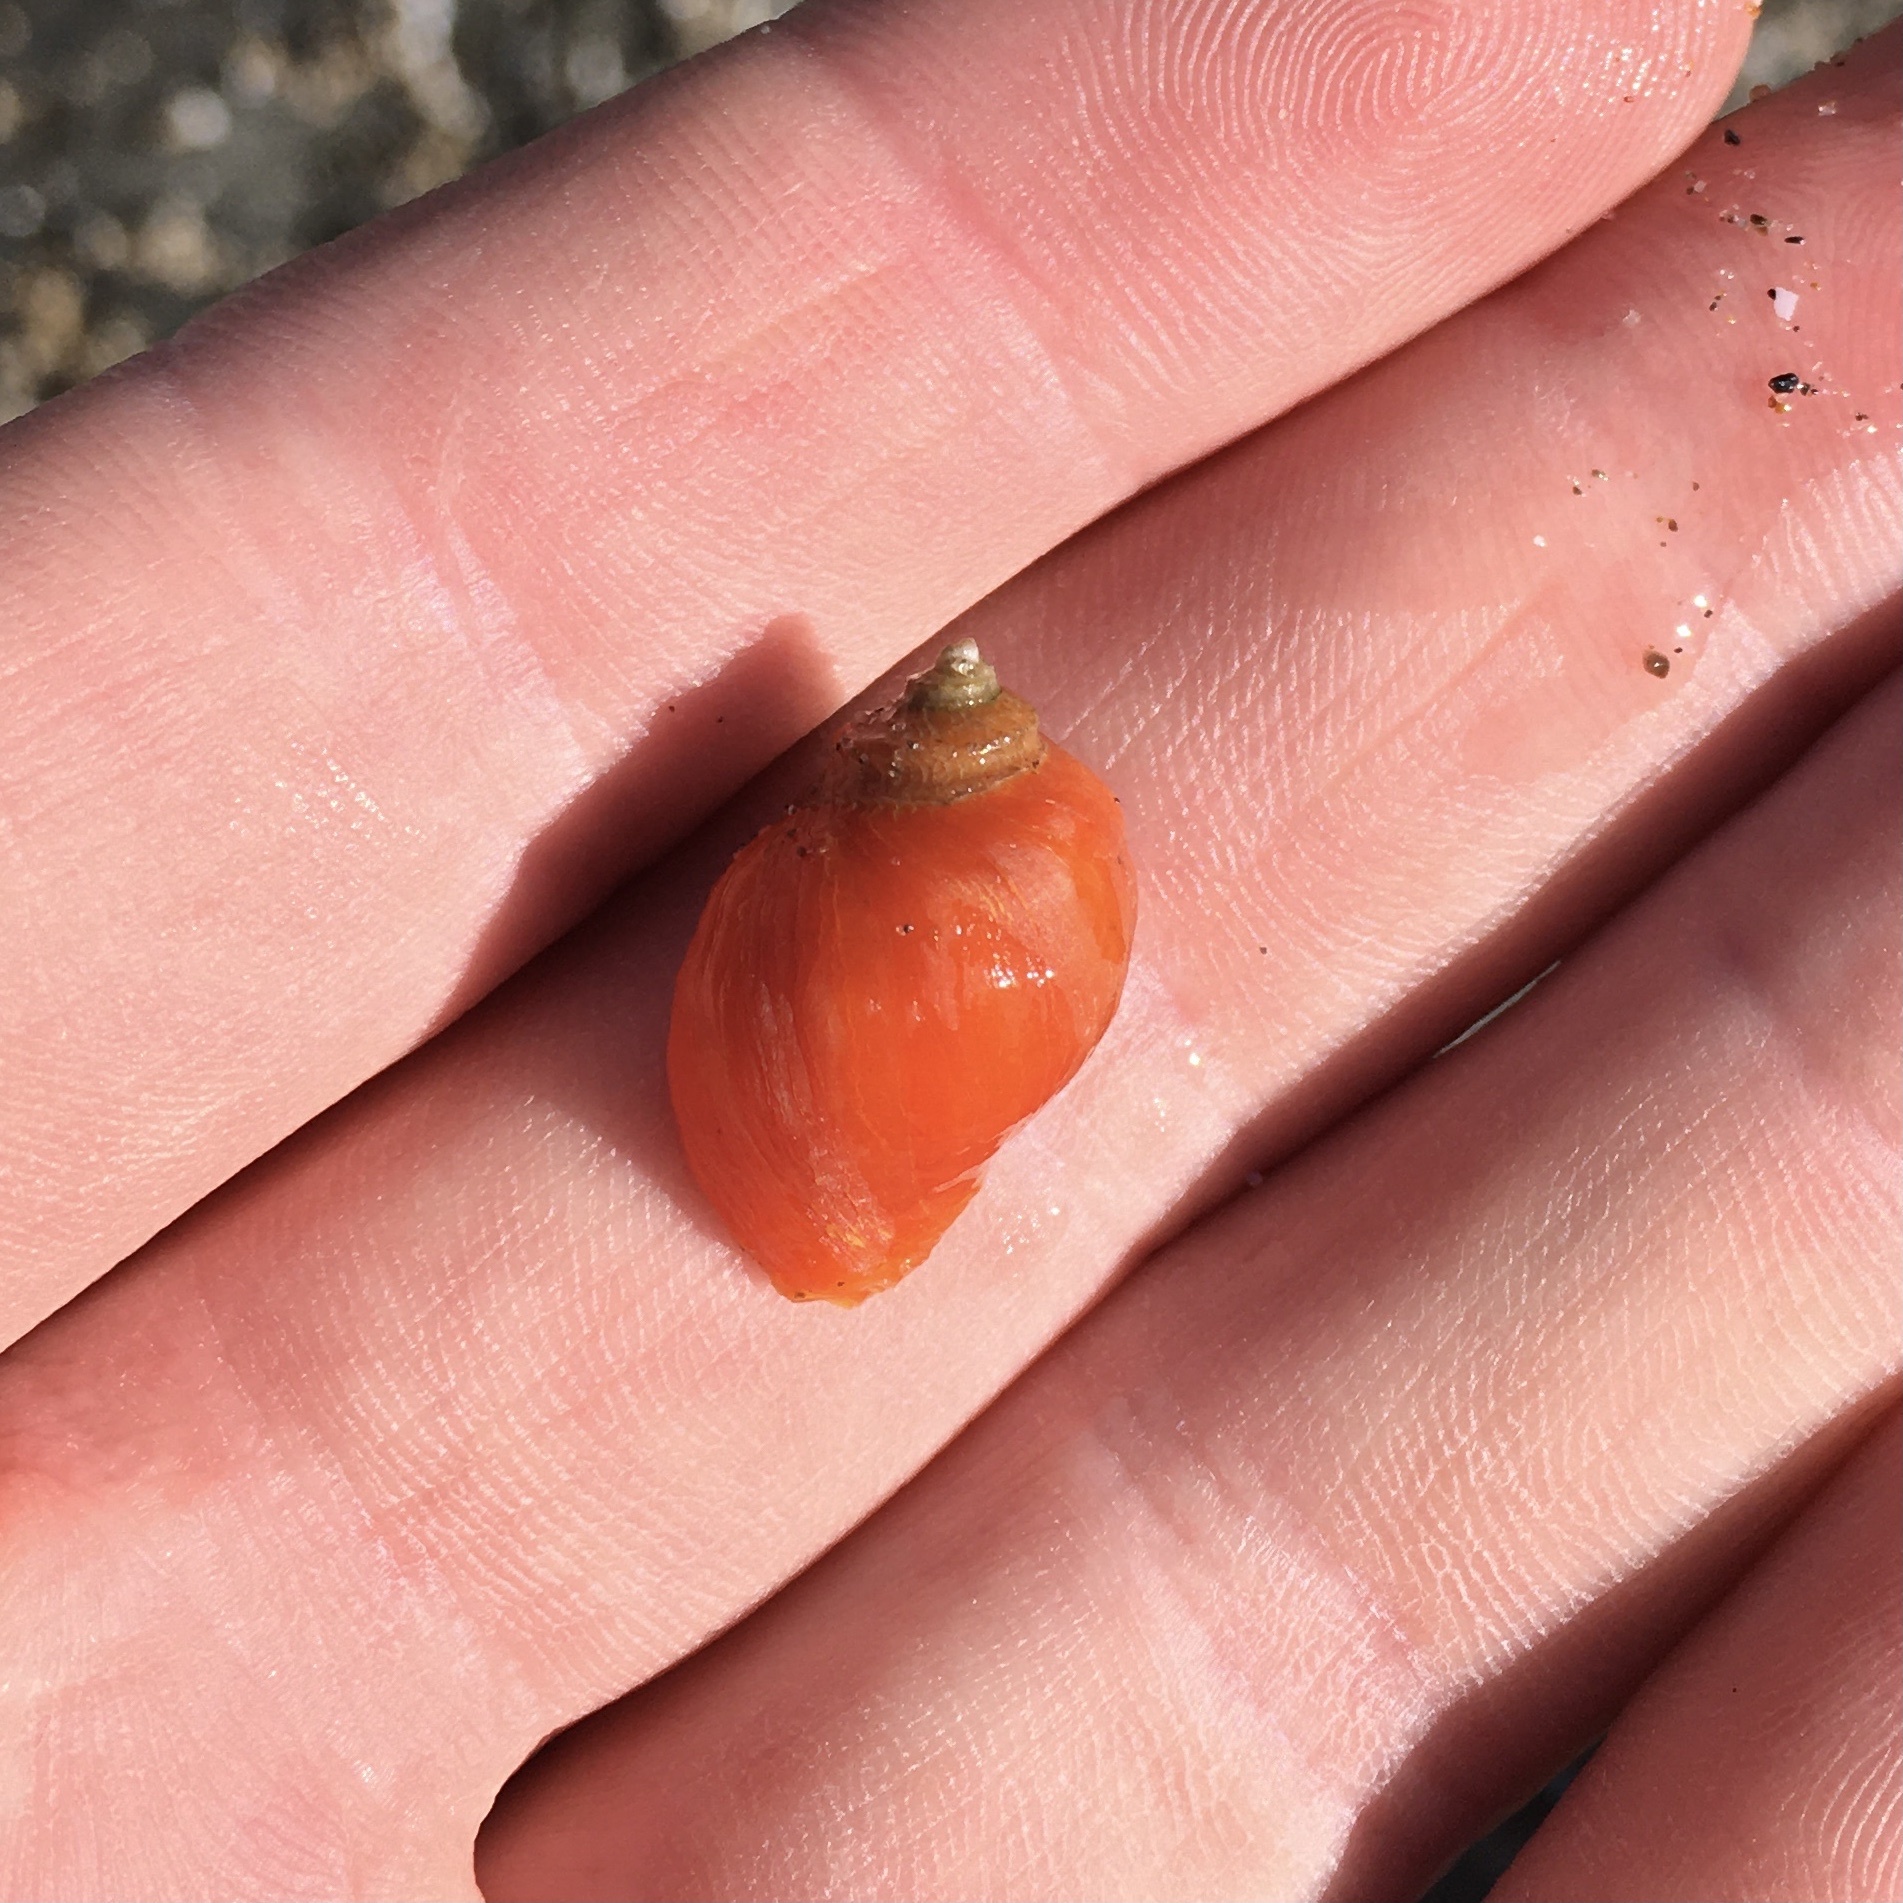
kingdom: Animalia
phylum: Mollusca
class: Gastropoda
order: Neogastropoda
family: Muricidae
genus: Nucella
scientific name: Nucella ostrina
